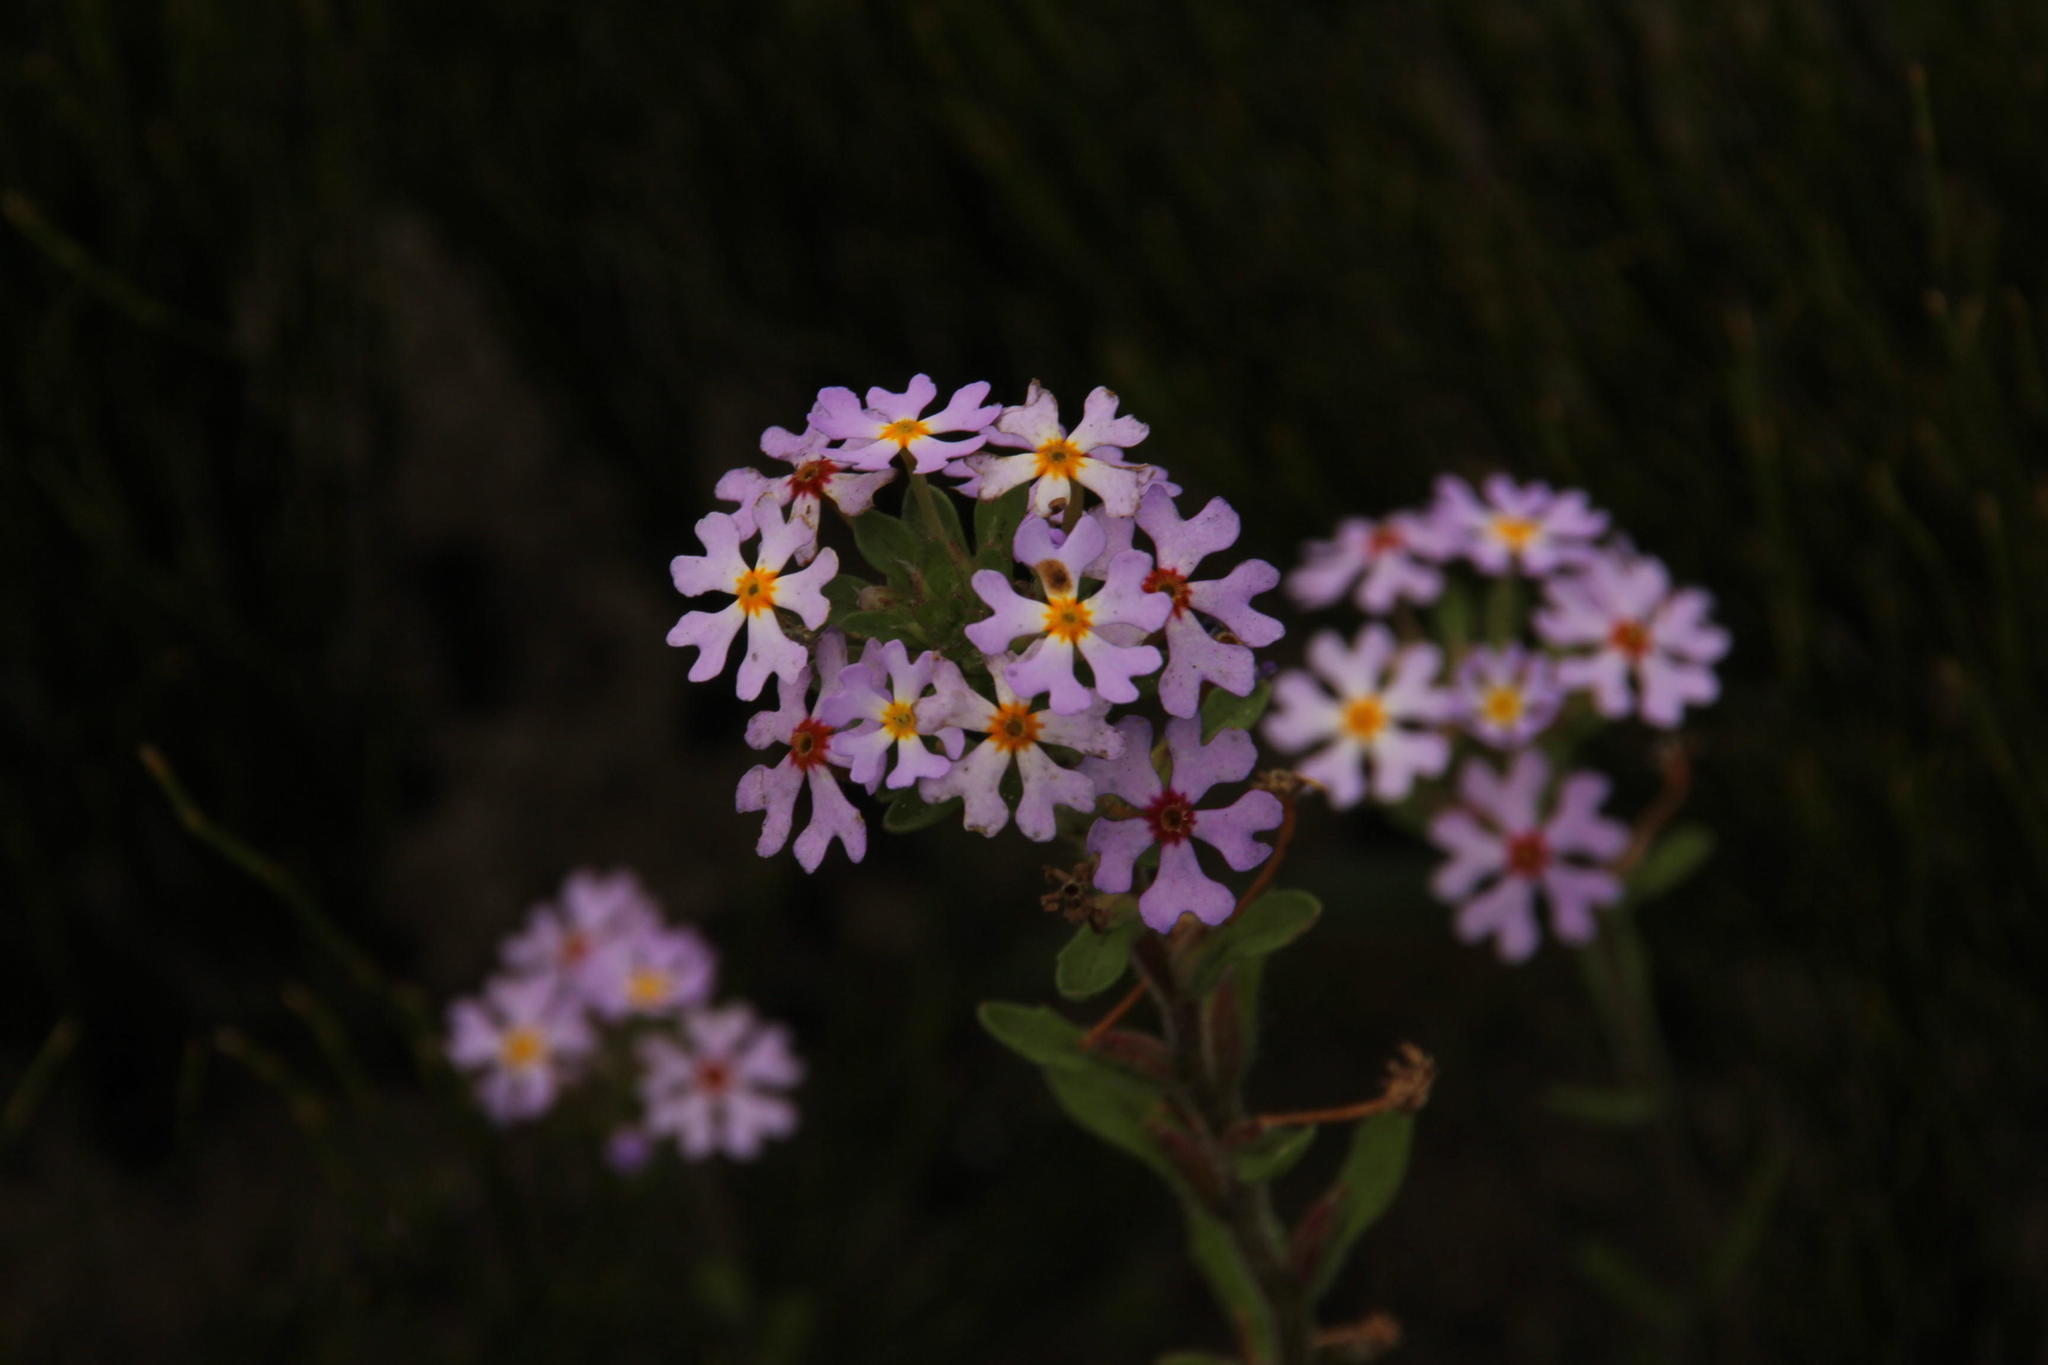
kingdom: Plantae
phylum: Tracheophyta
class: Magnoliopsida
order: Lamiales
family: Scrophulariaceae
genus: Zaluzianskya
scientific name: Zaluzianskya villosa
